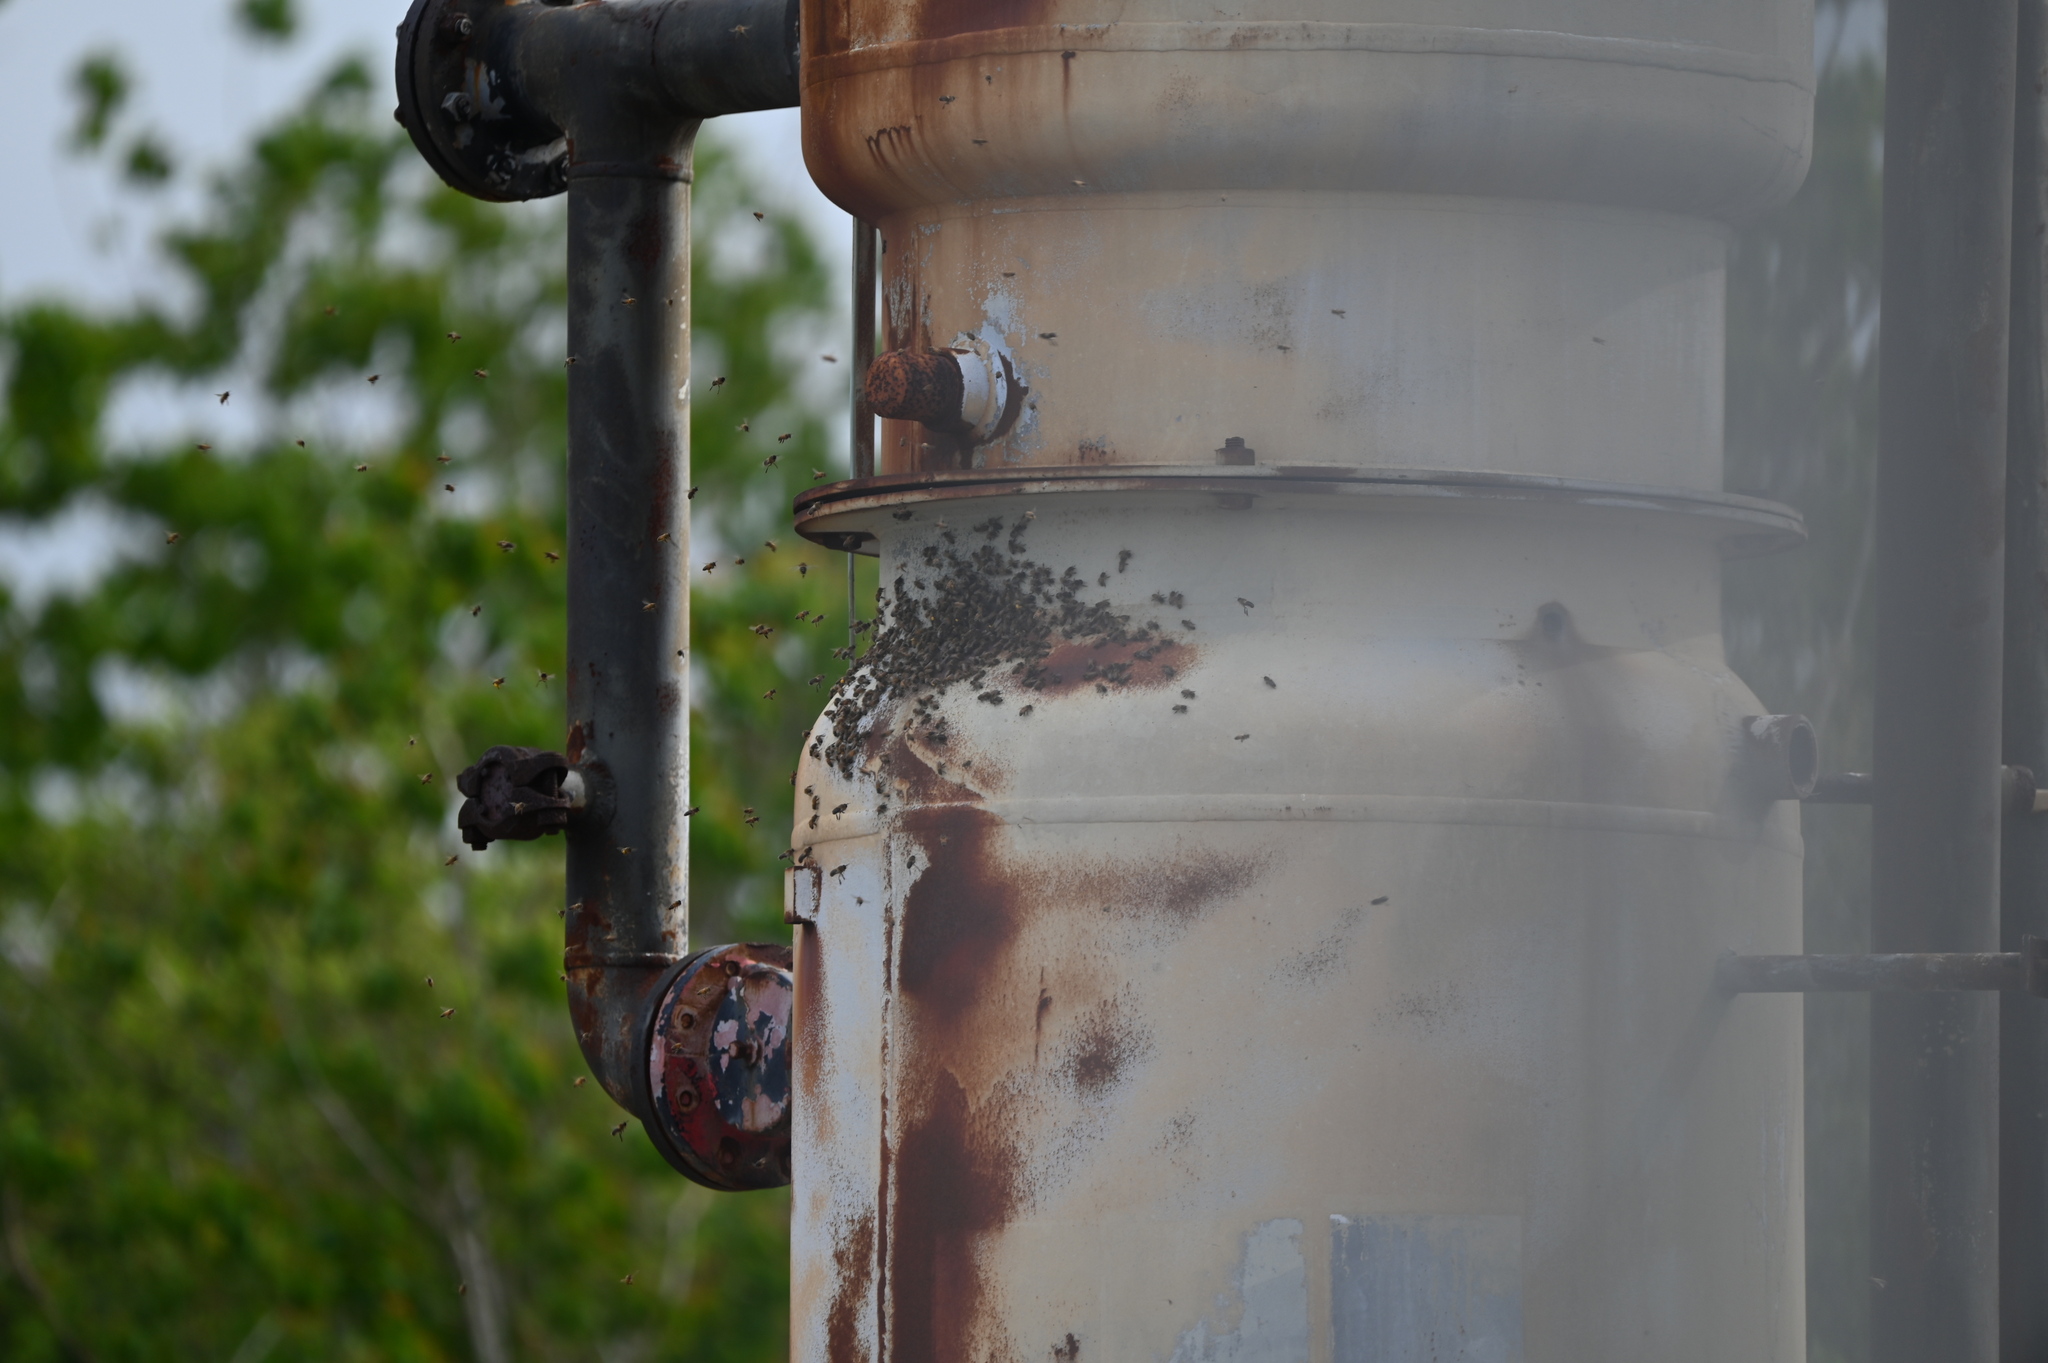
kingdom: Animalia
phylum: Arthropoda
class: Insecta
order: Hymenoptera
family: Apidae
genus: Apis
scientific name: Apis mellifera
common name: Honey bee
